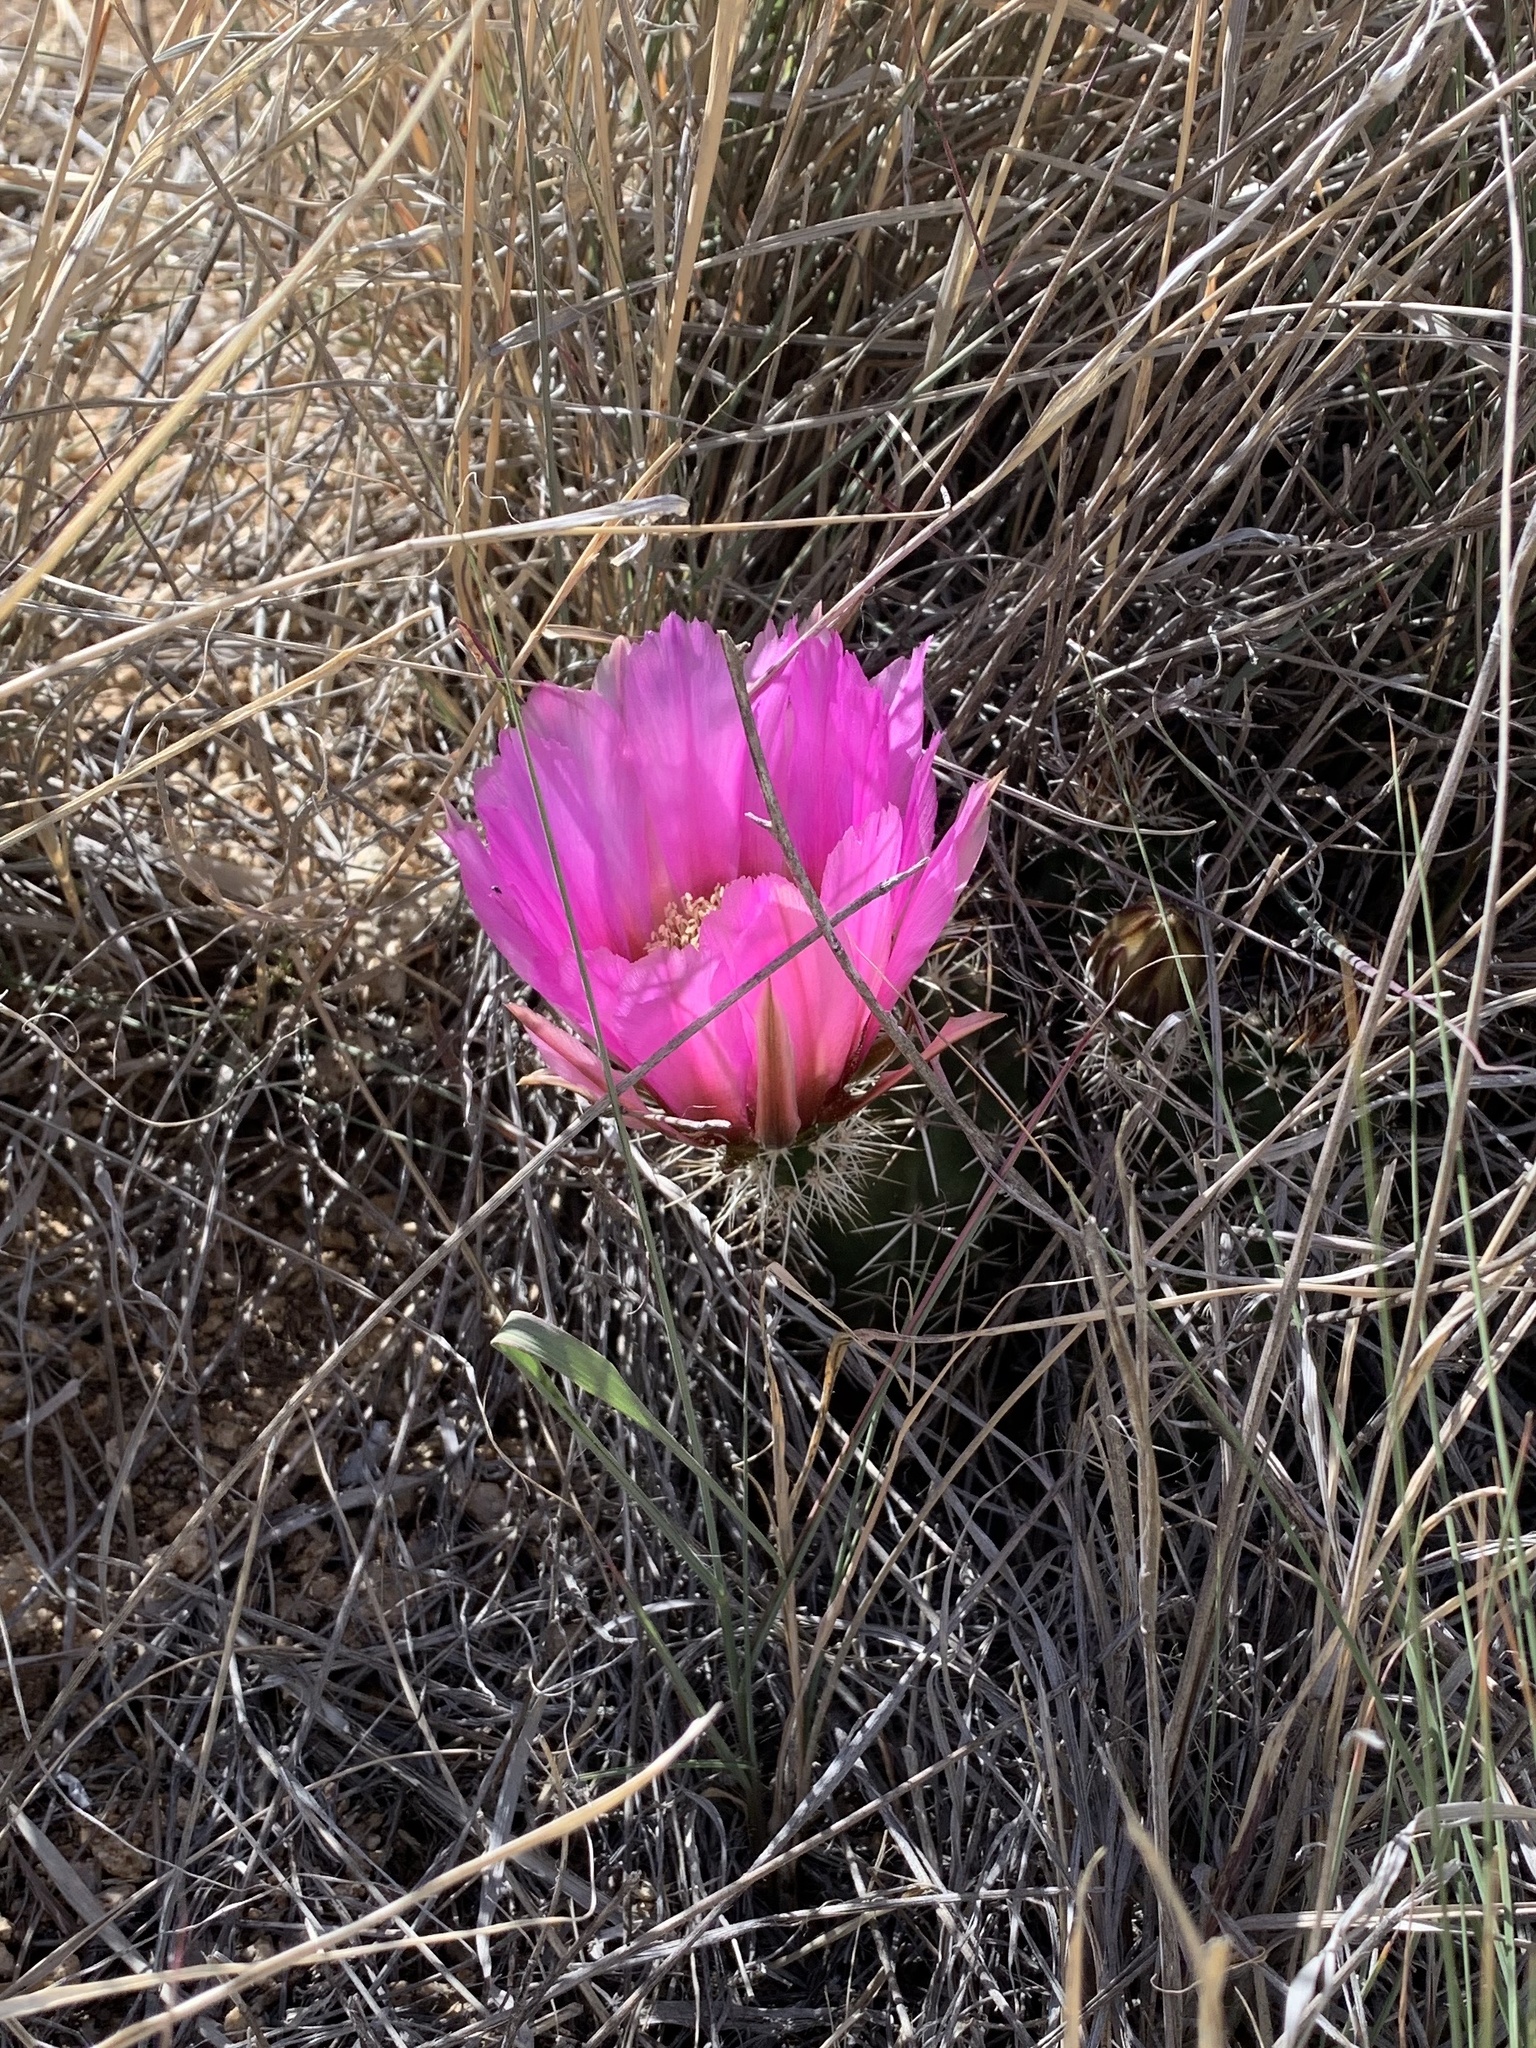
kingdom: Plantae
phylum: Tracheophyta
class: Magnoliopsida
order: Caryophyllales
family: Cactaceae
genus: Echinocereus
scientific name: Echinocereus fendleri
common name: Fendler's hedgehog cactus
